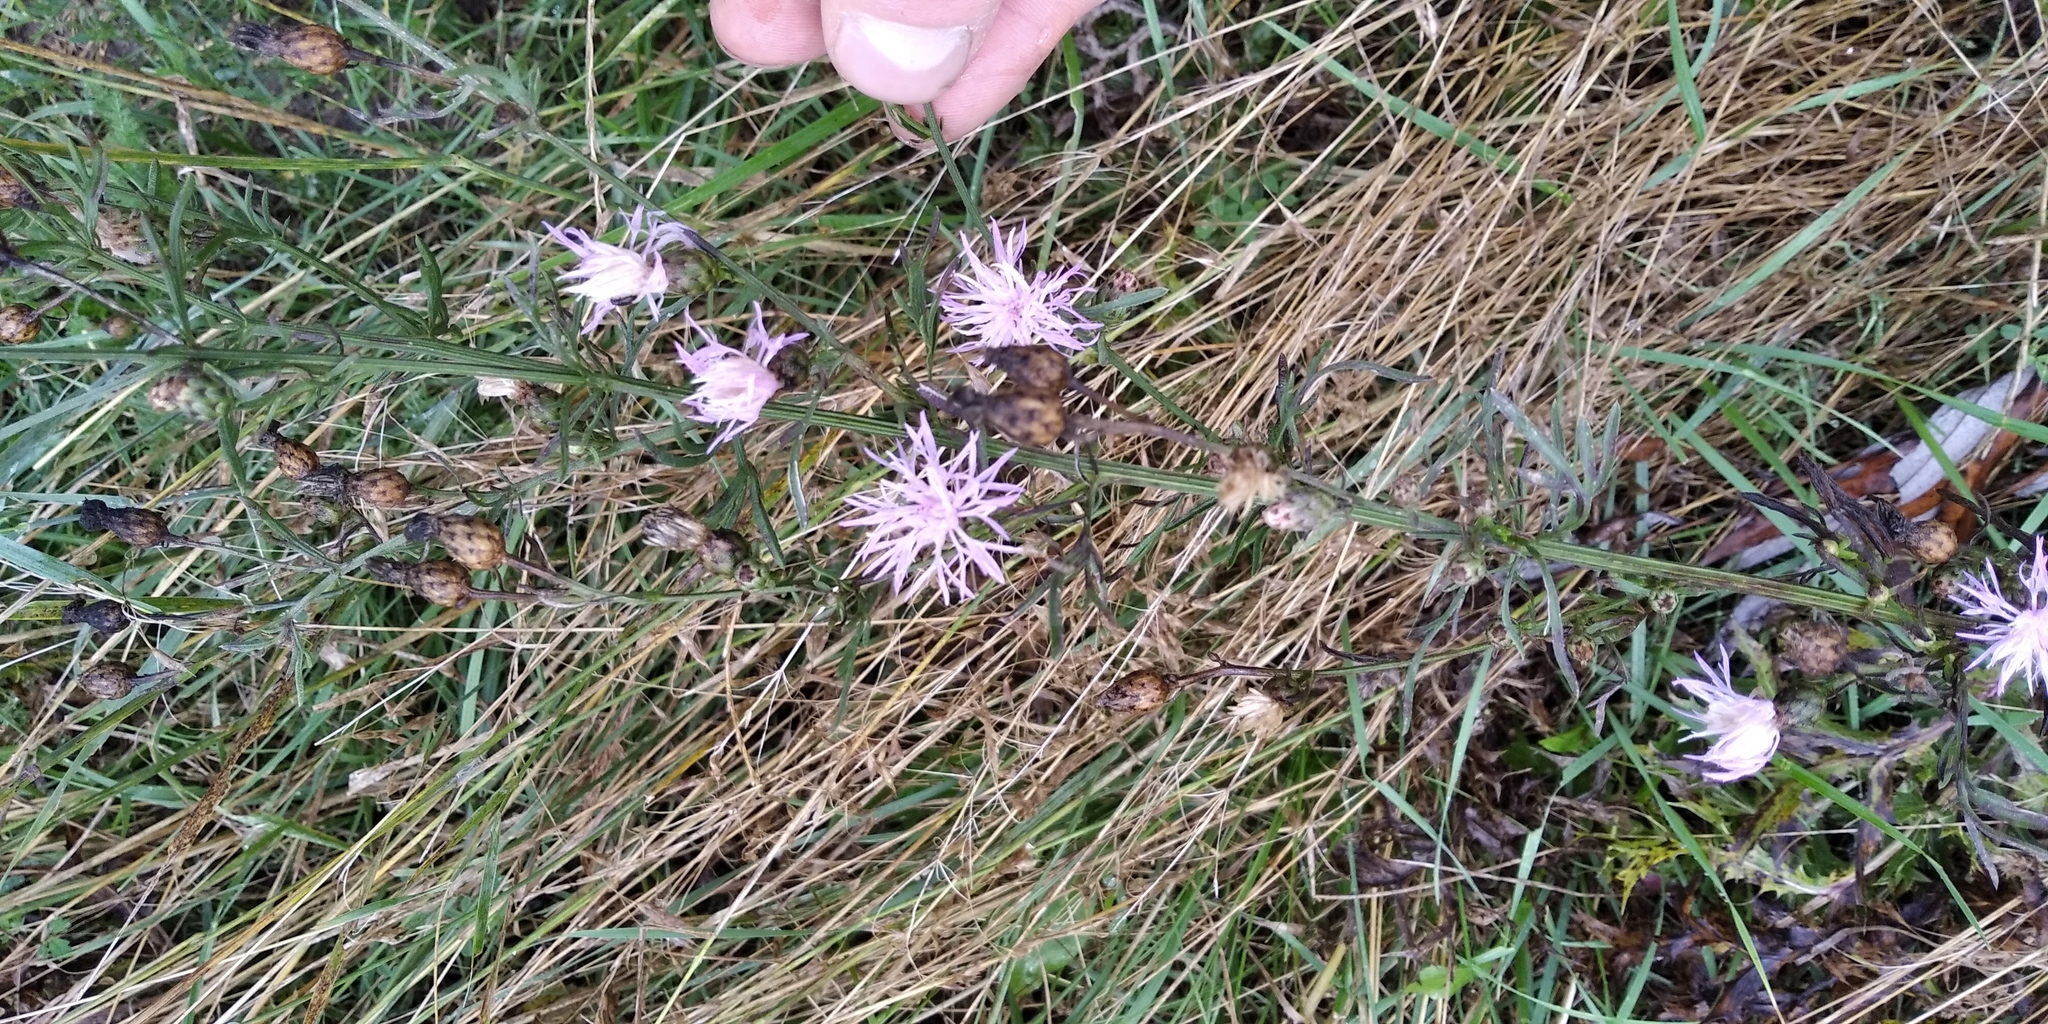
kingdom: Plantae
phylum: Tracheophyta
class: Magnoliopsida
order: Asterales
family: Asteraceae
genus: Centaurea
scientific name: Centaurea stoebe
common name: Spotted knapweed
